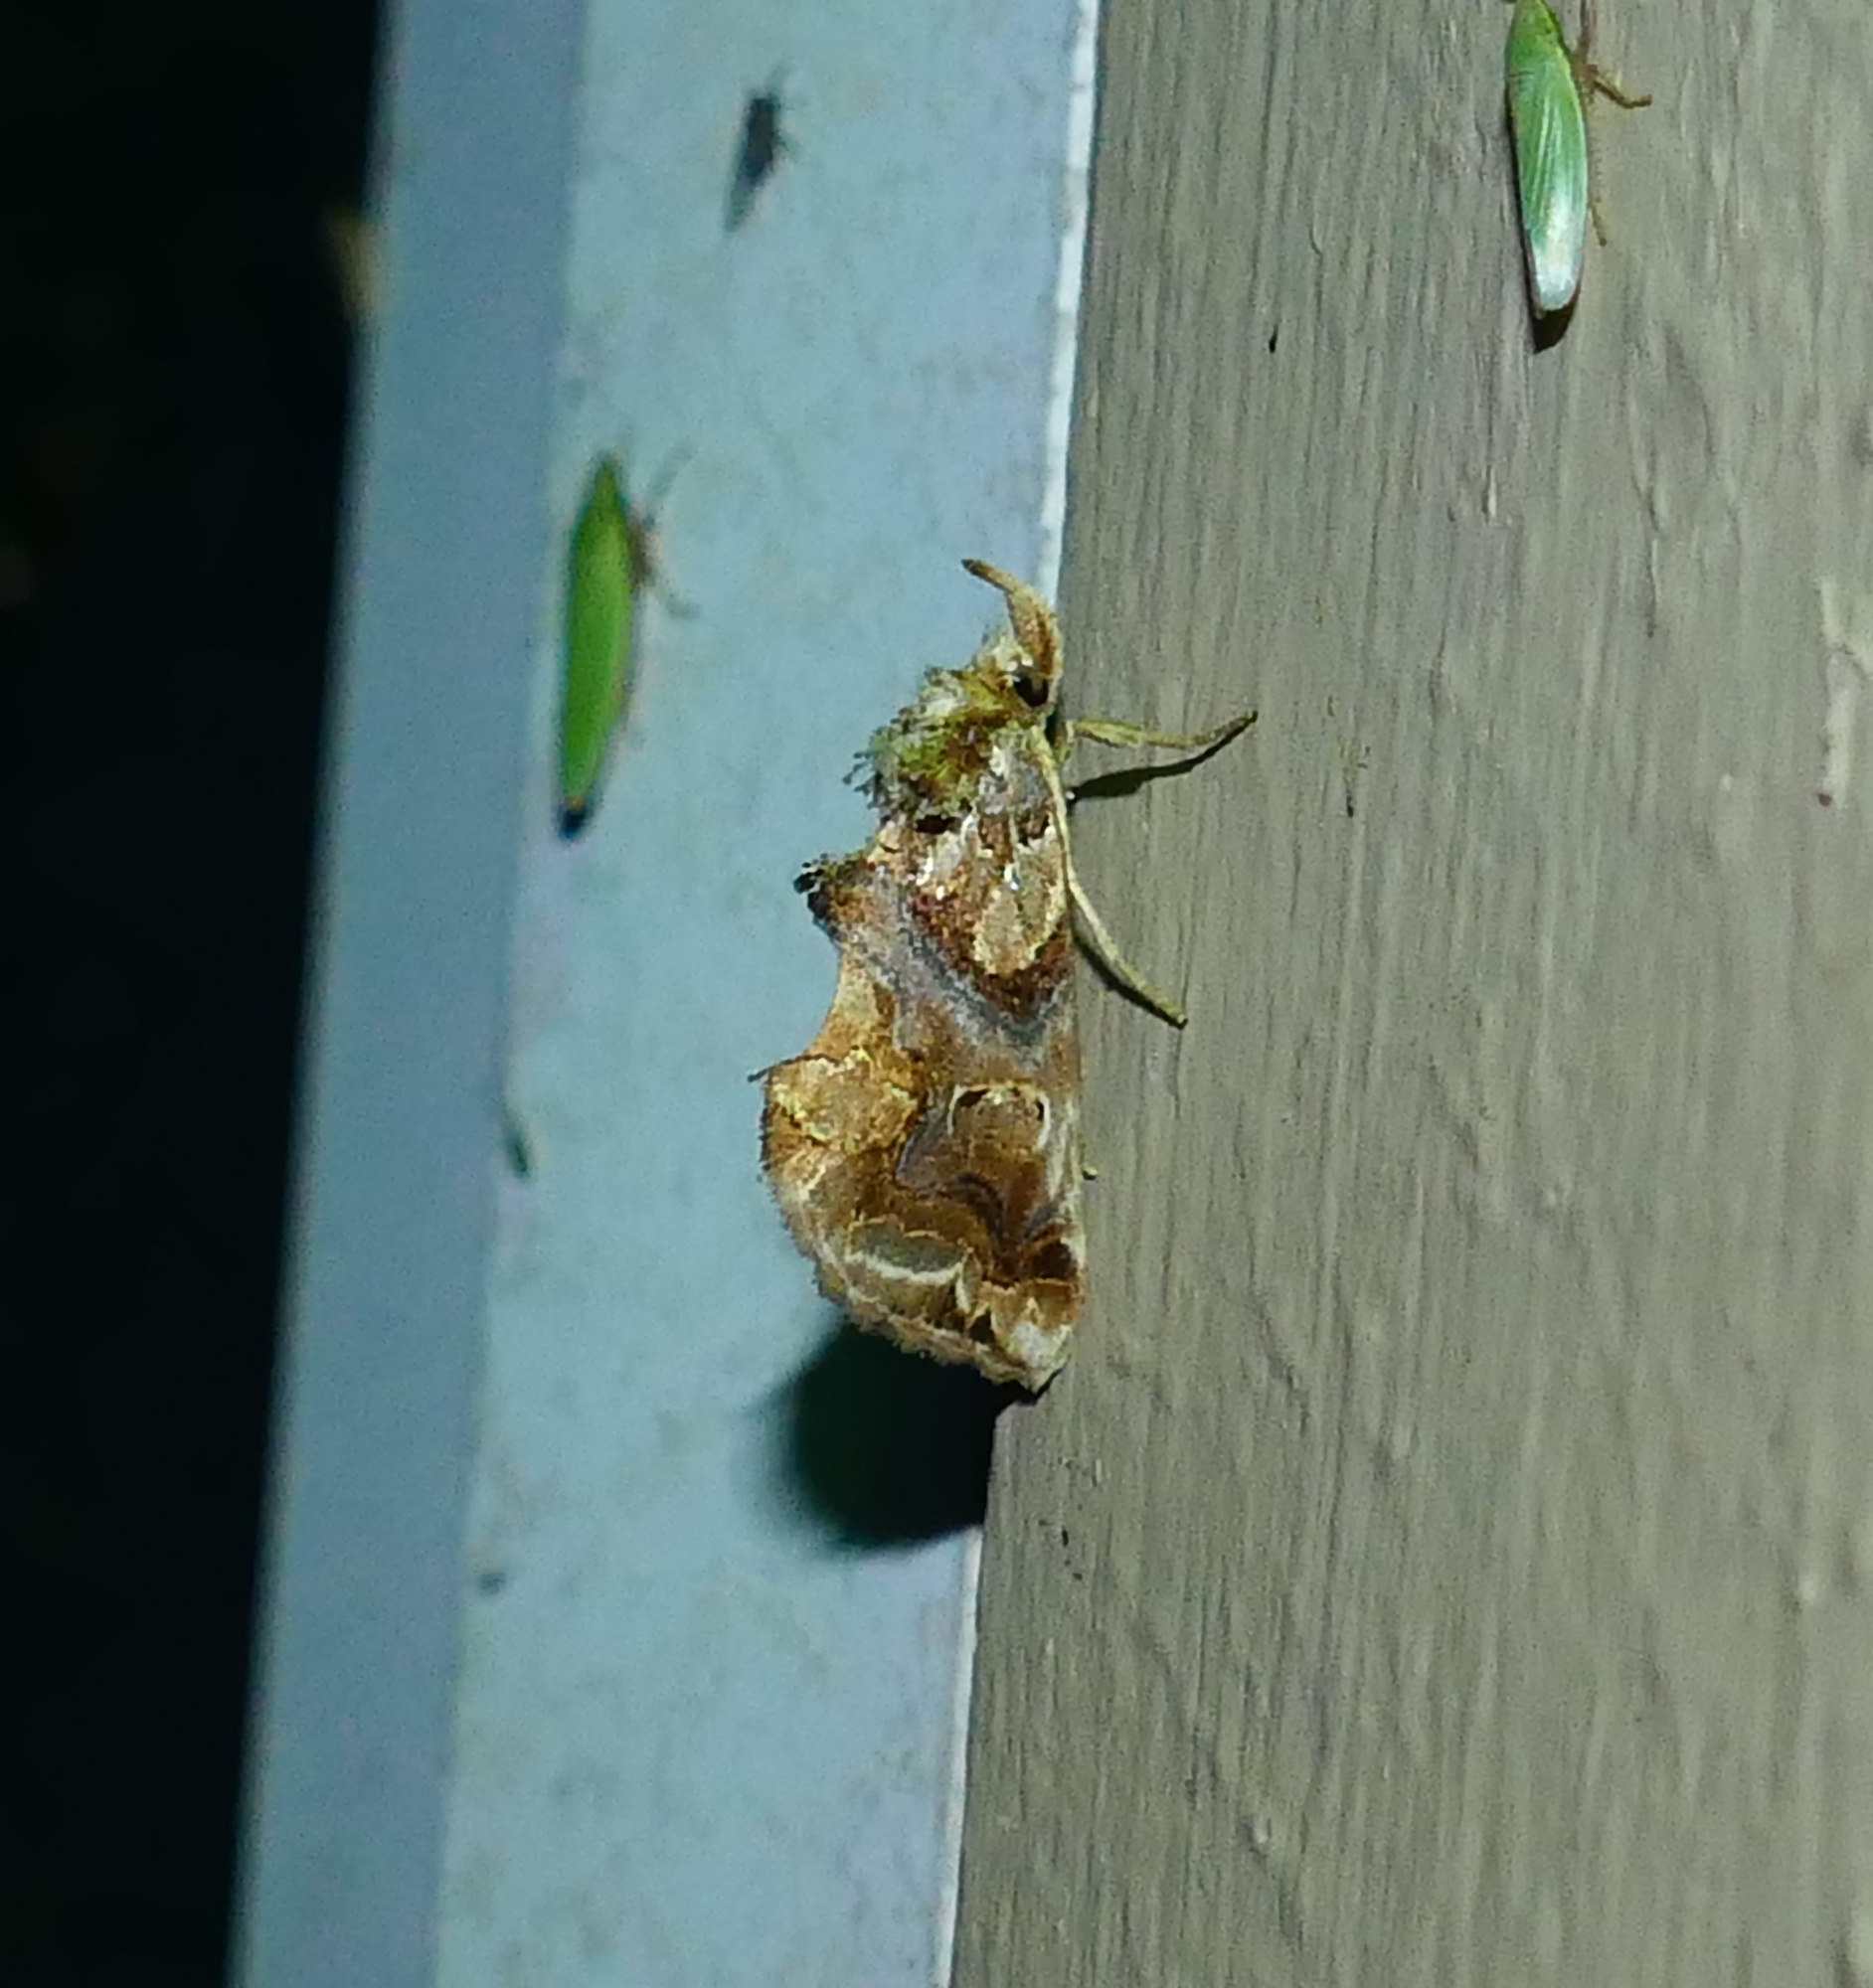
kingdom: Animalia
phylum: Arthropoda
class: Insecta
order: Lepidoptera
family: Erebidae
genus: Plusiodonta
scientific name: Plusiodonta compressipalpis
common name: Moonseed moth
